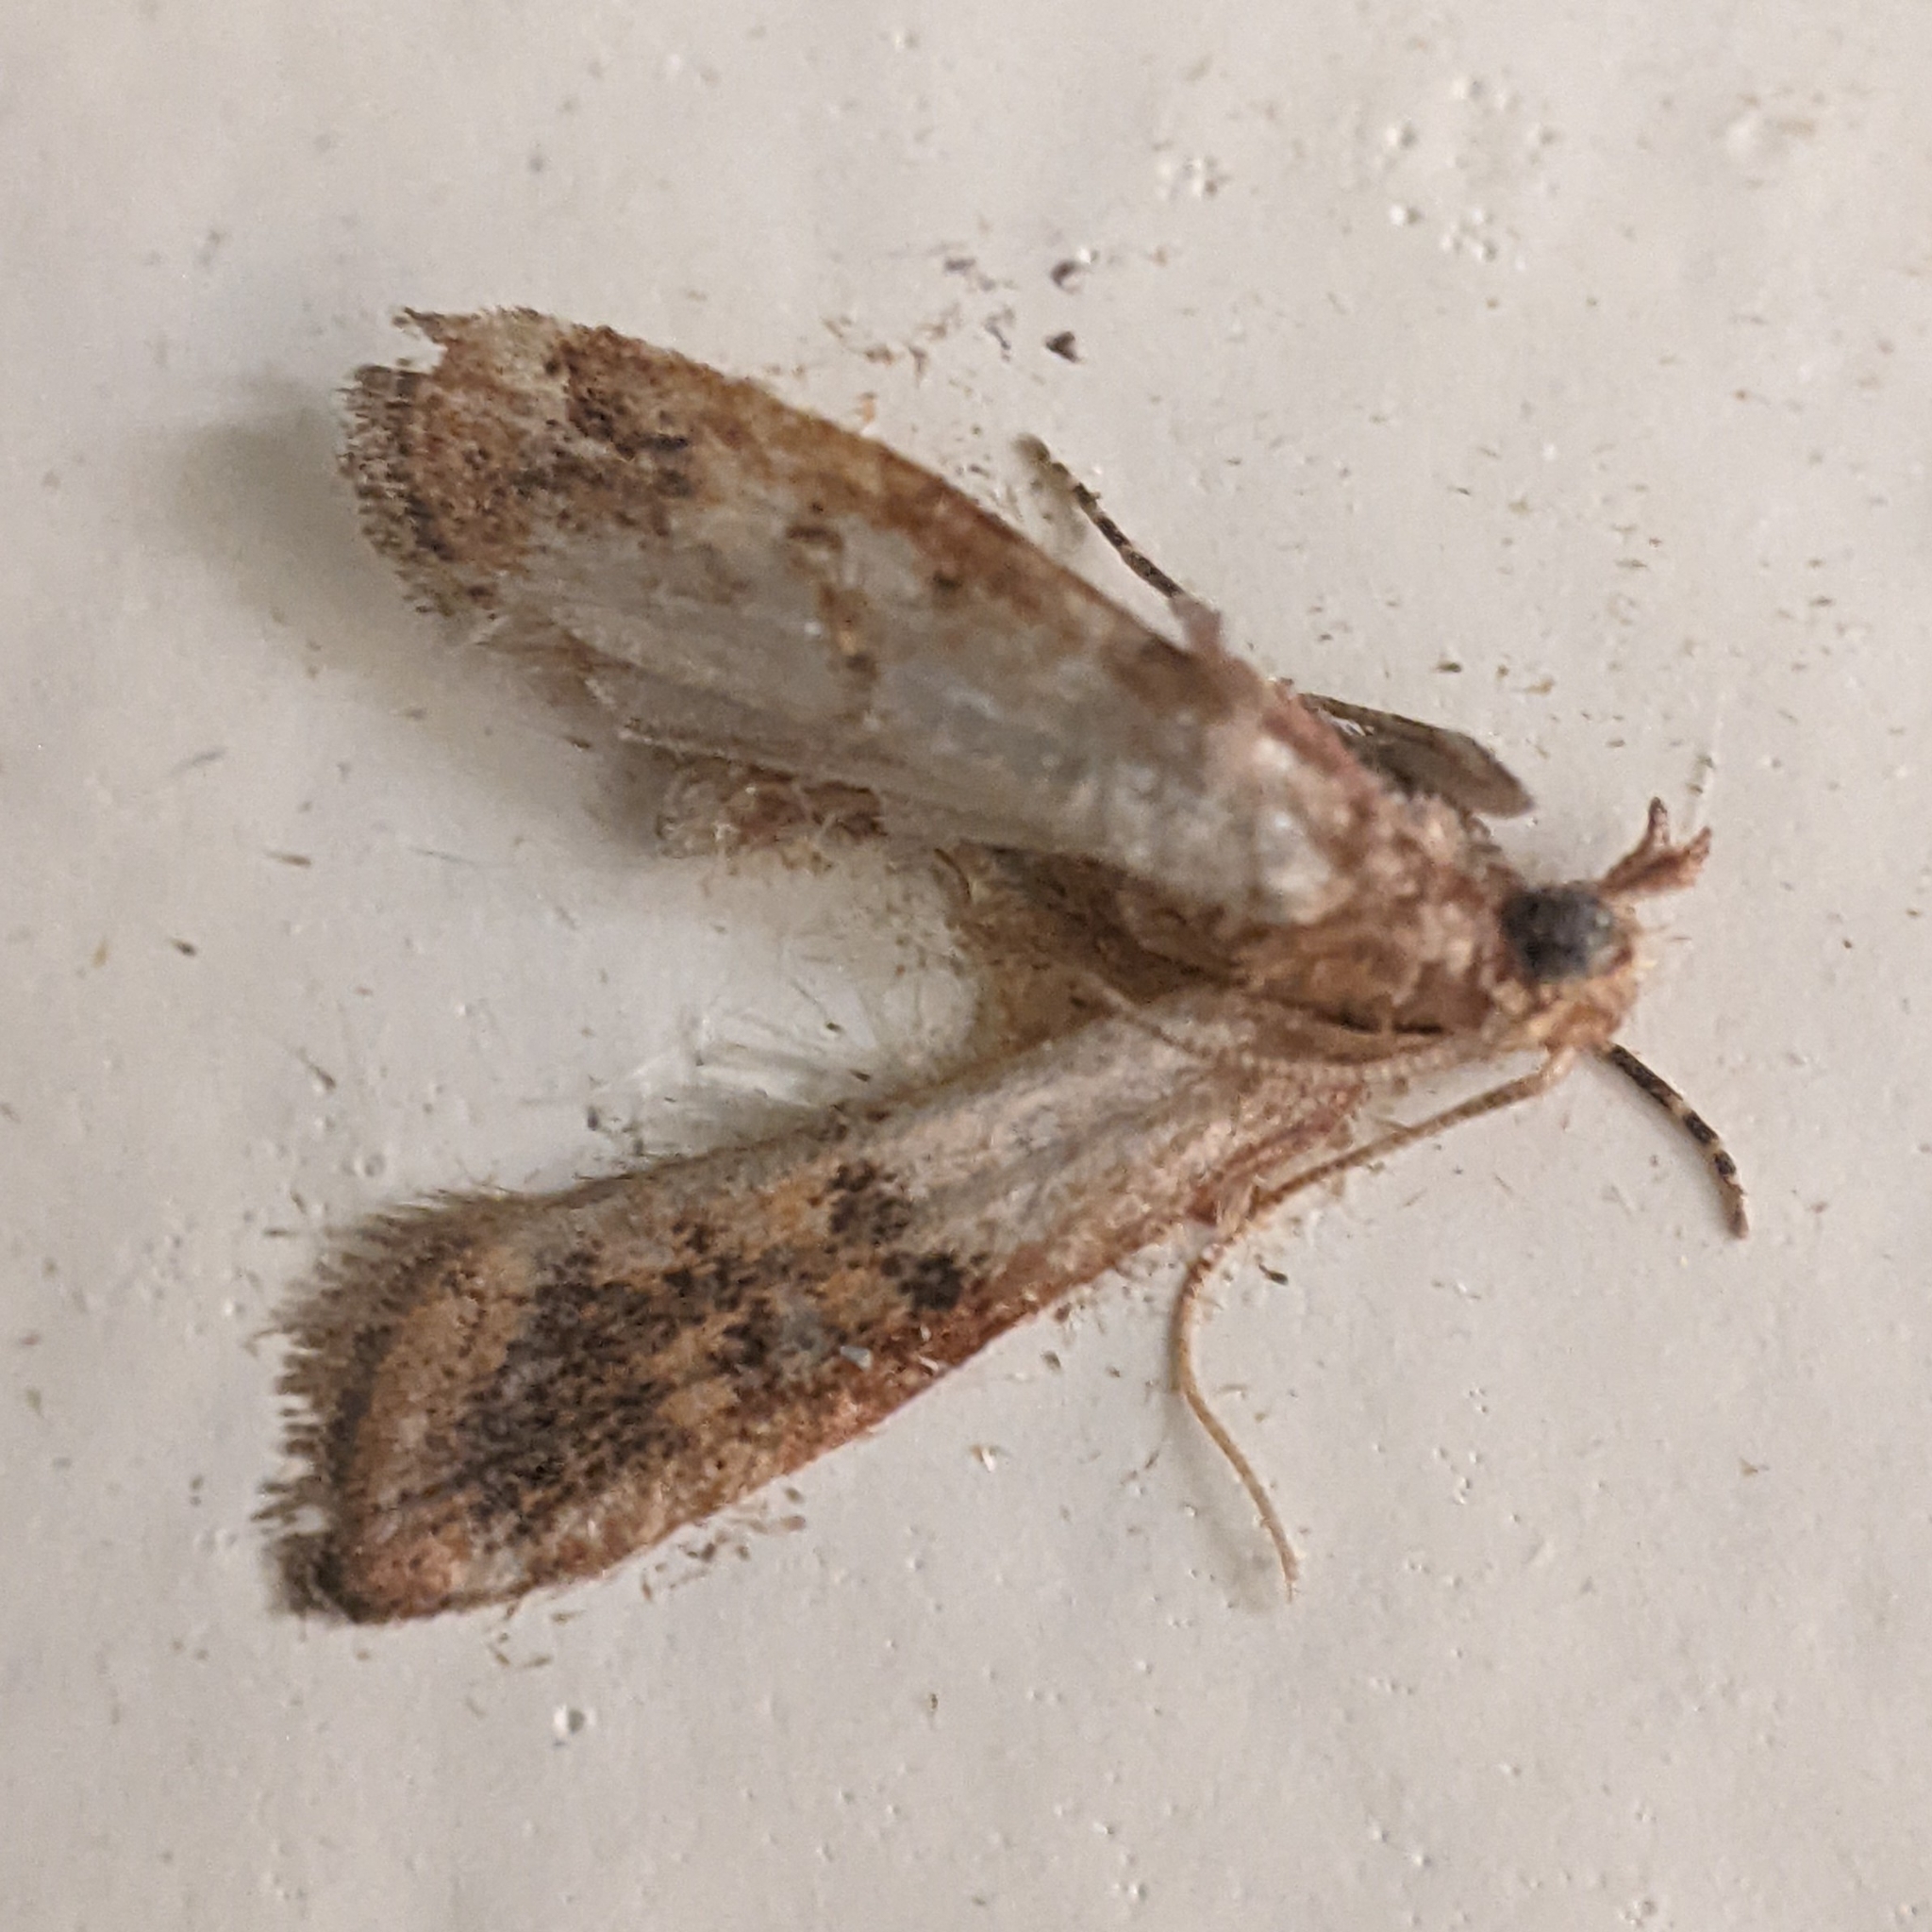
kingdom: Animalia
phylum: Arthropoda
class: Insecta
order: Lepidoptera
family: Pyralidae
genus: Plodia
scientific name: Plodia interpunctella
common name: Indian meal moth
